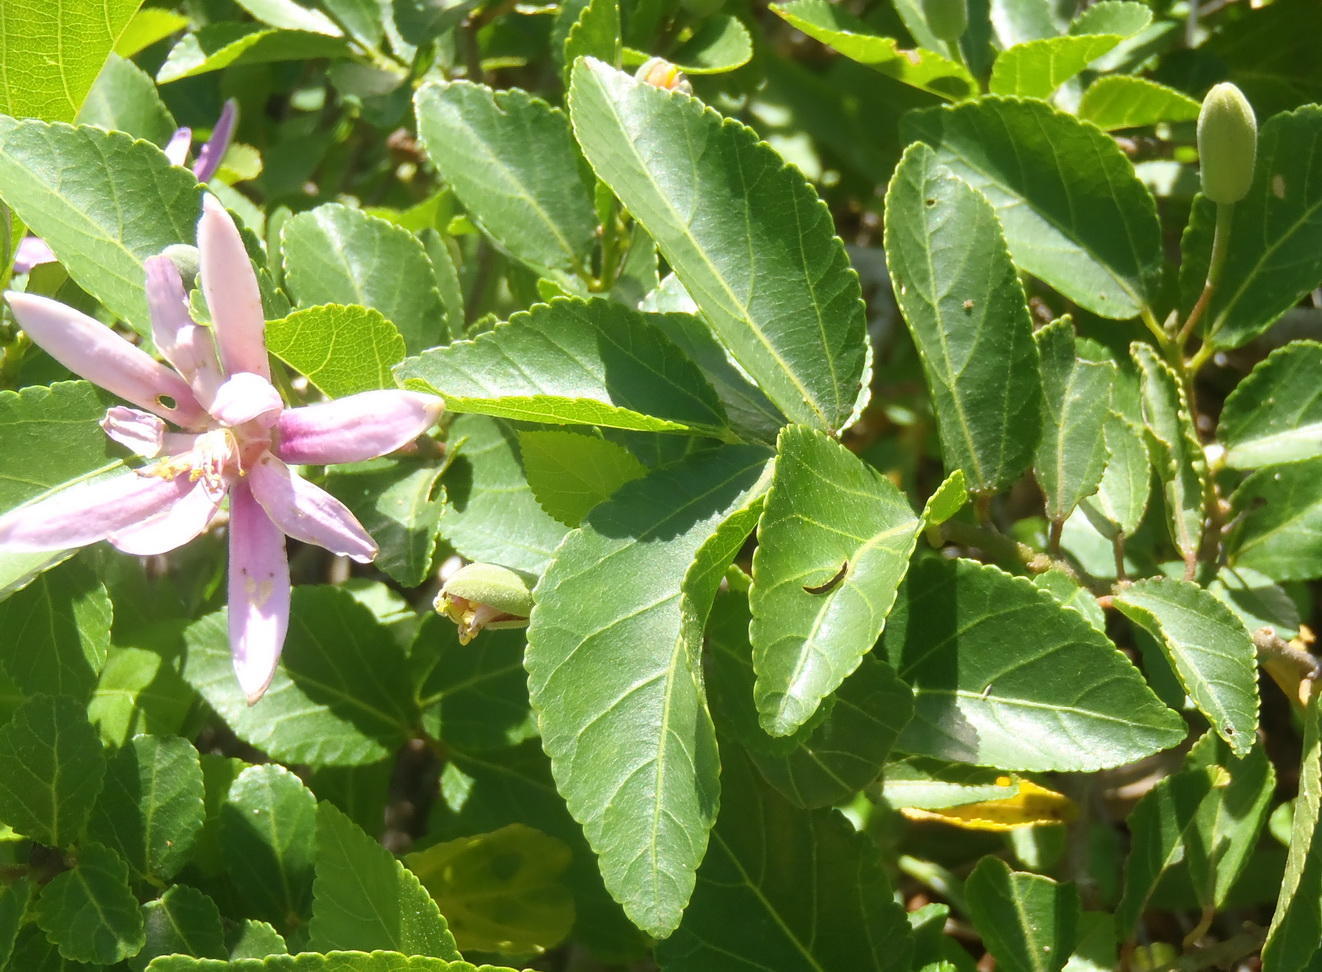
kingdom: Plantae
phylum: Tracheophyta
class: Magnoliopsida
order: Malvales
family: Malvaceae
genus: Grewia
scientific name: Grewia occidentalis
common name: Crossberry
